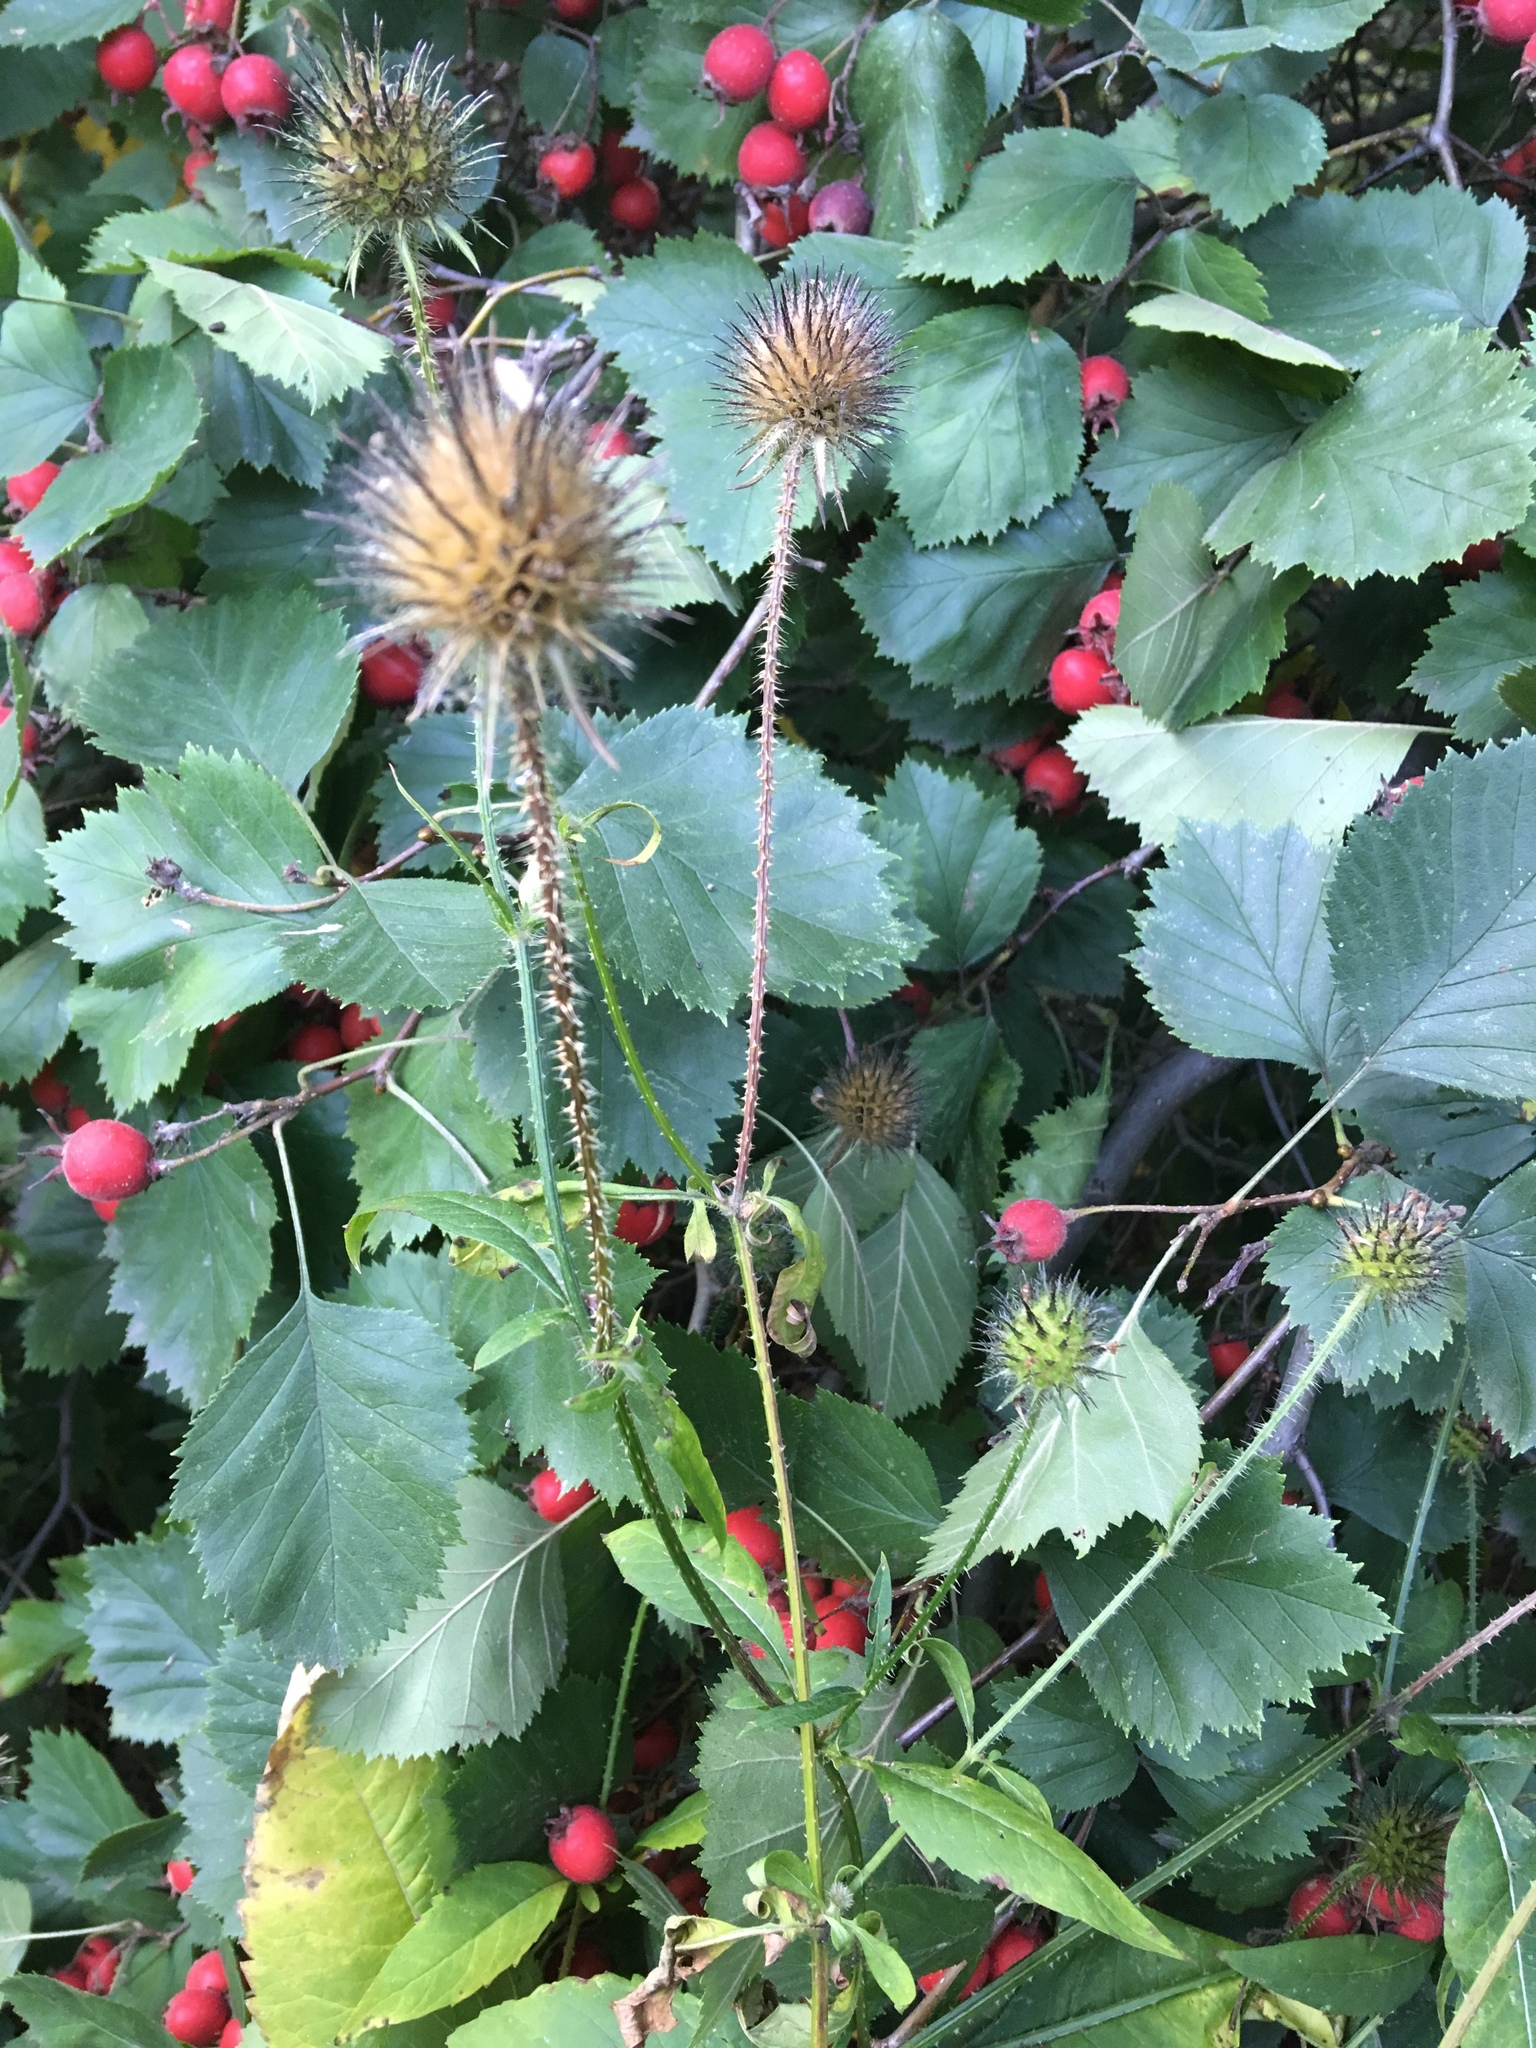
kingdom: Plantae
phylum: Tracheophyta
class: Magnoliopsida
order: Dipsacales
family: Caprifoliaceae
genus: Dipsacus
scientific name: Dipsacus strigosus
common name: Yellow-flowered teasel
